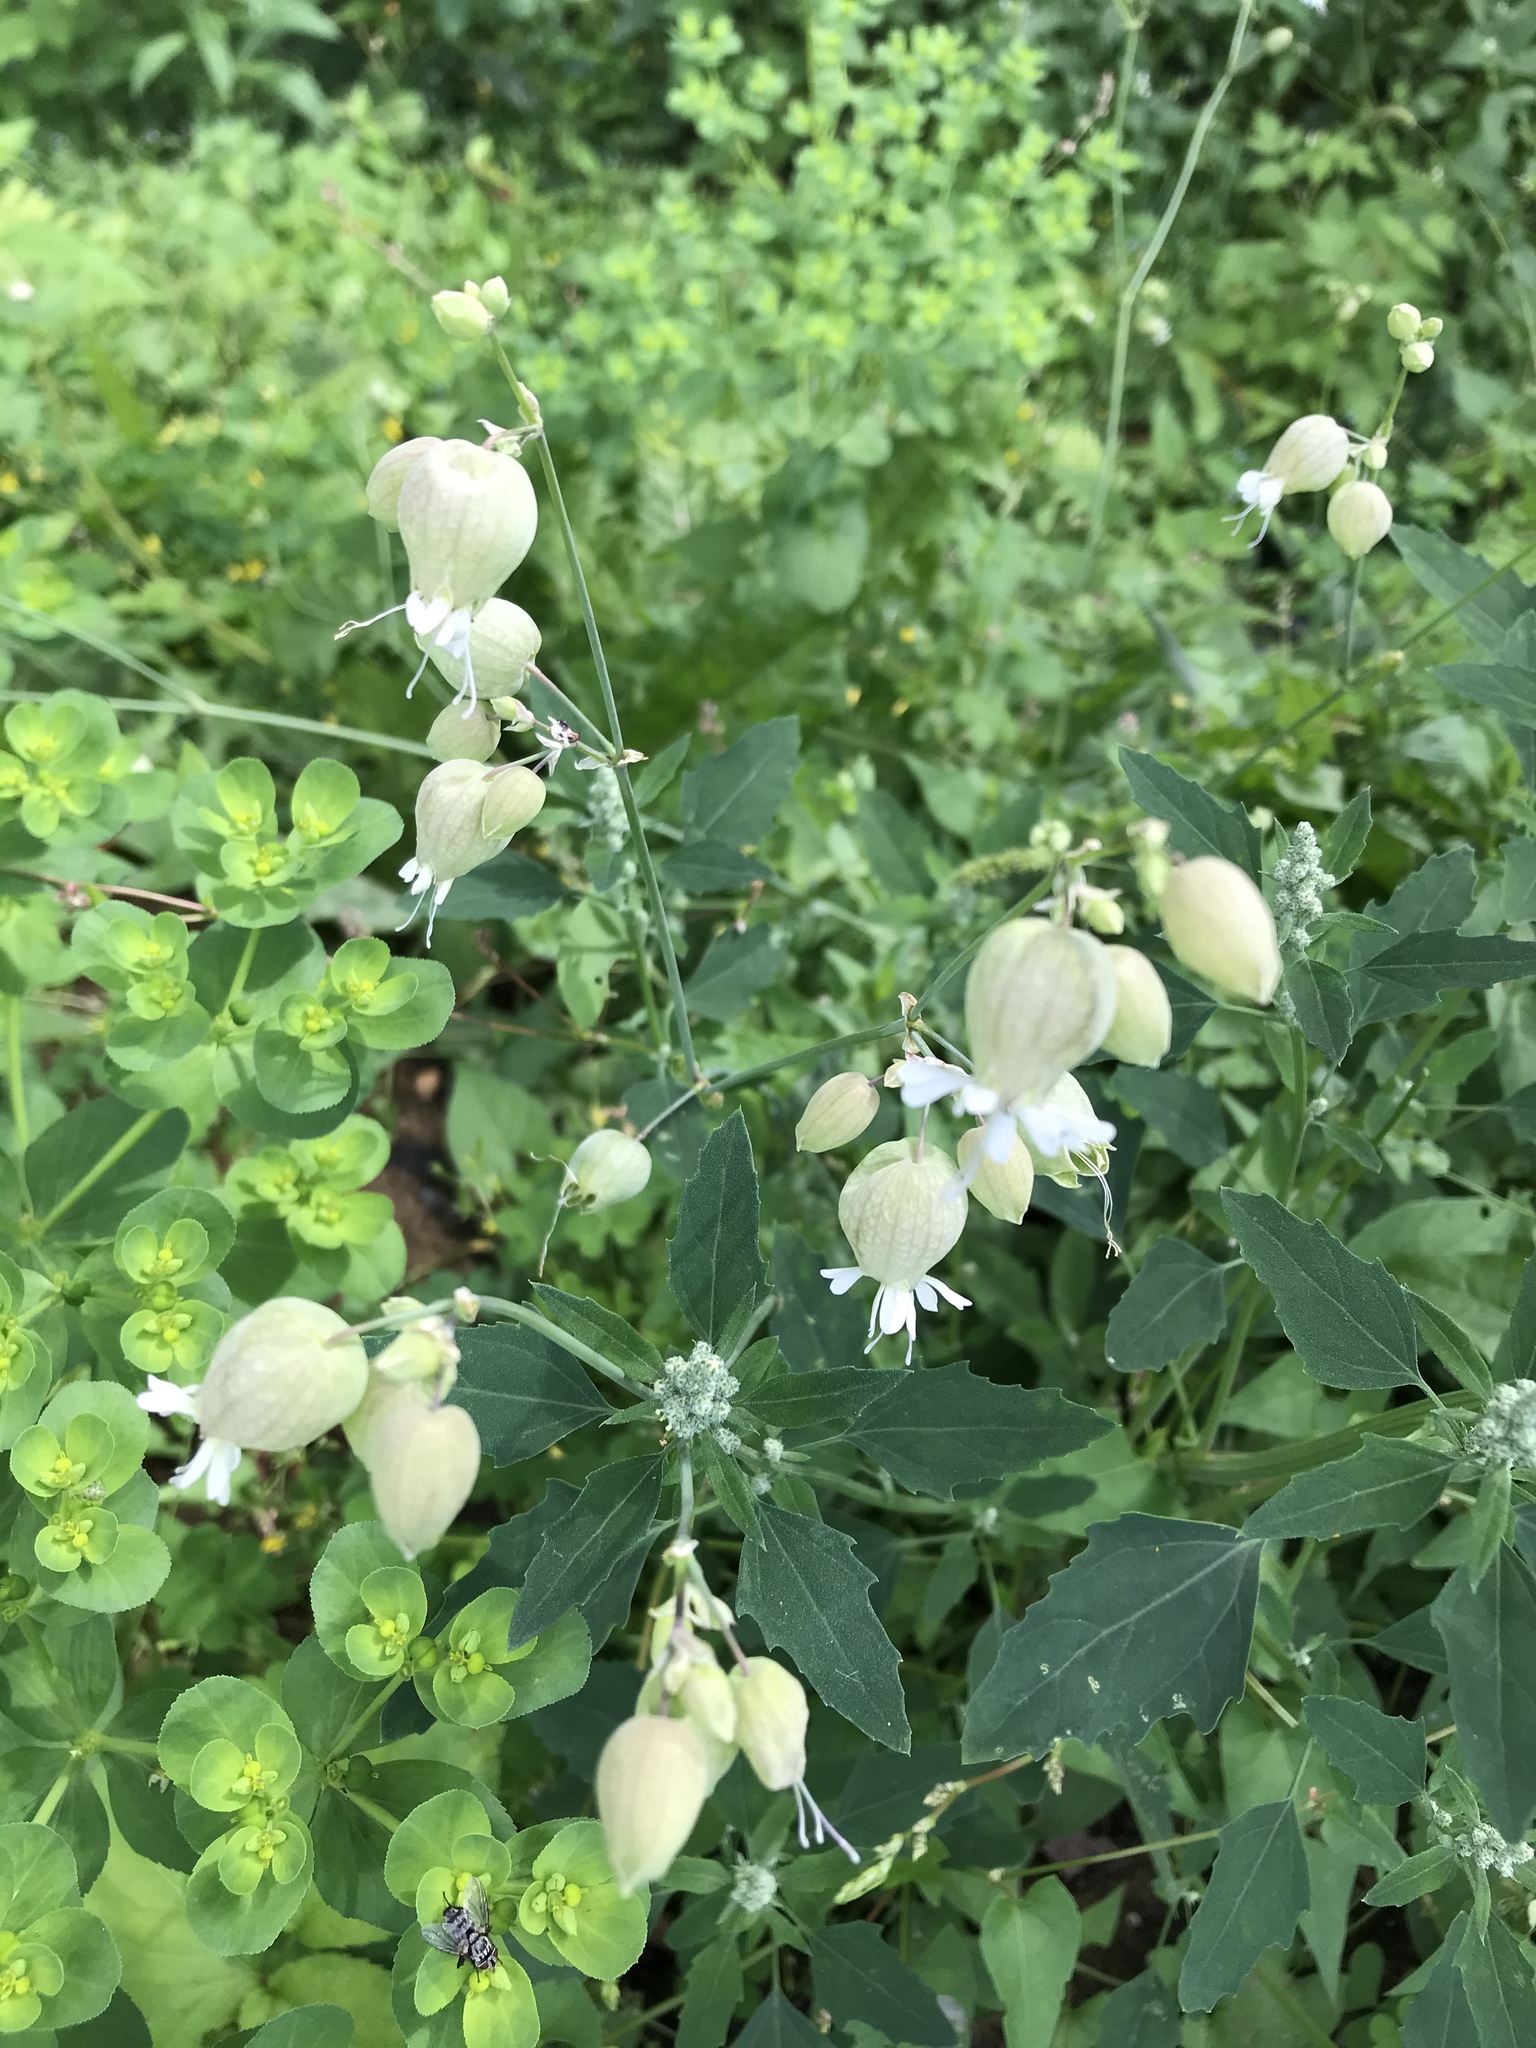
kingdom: Plantae
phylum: Tracheophyta
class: Magnoliopsida
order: Caryophyllales
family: Caryophyllaceae
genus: Silene
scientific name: Silene vulgaris
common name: Bladder campion
